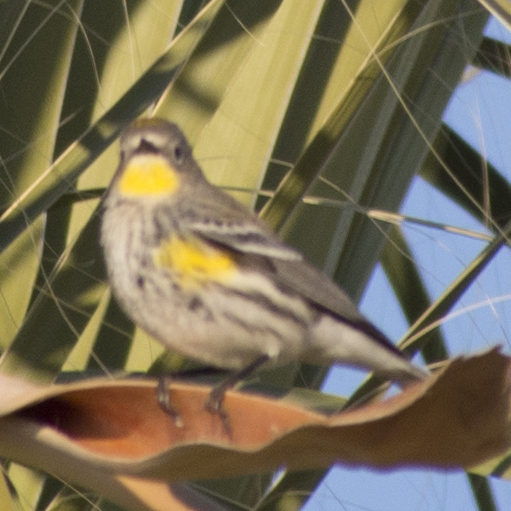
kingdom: Animalia
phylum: Chordata
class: Aves
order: Passeriformes
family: Parulidae
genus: Setophaga
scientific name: Setophaga coronata
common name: Myrtle warbler
